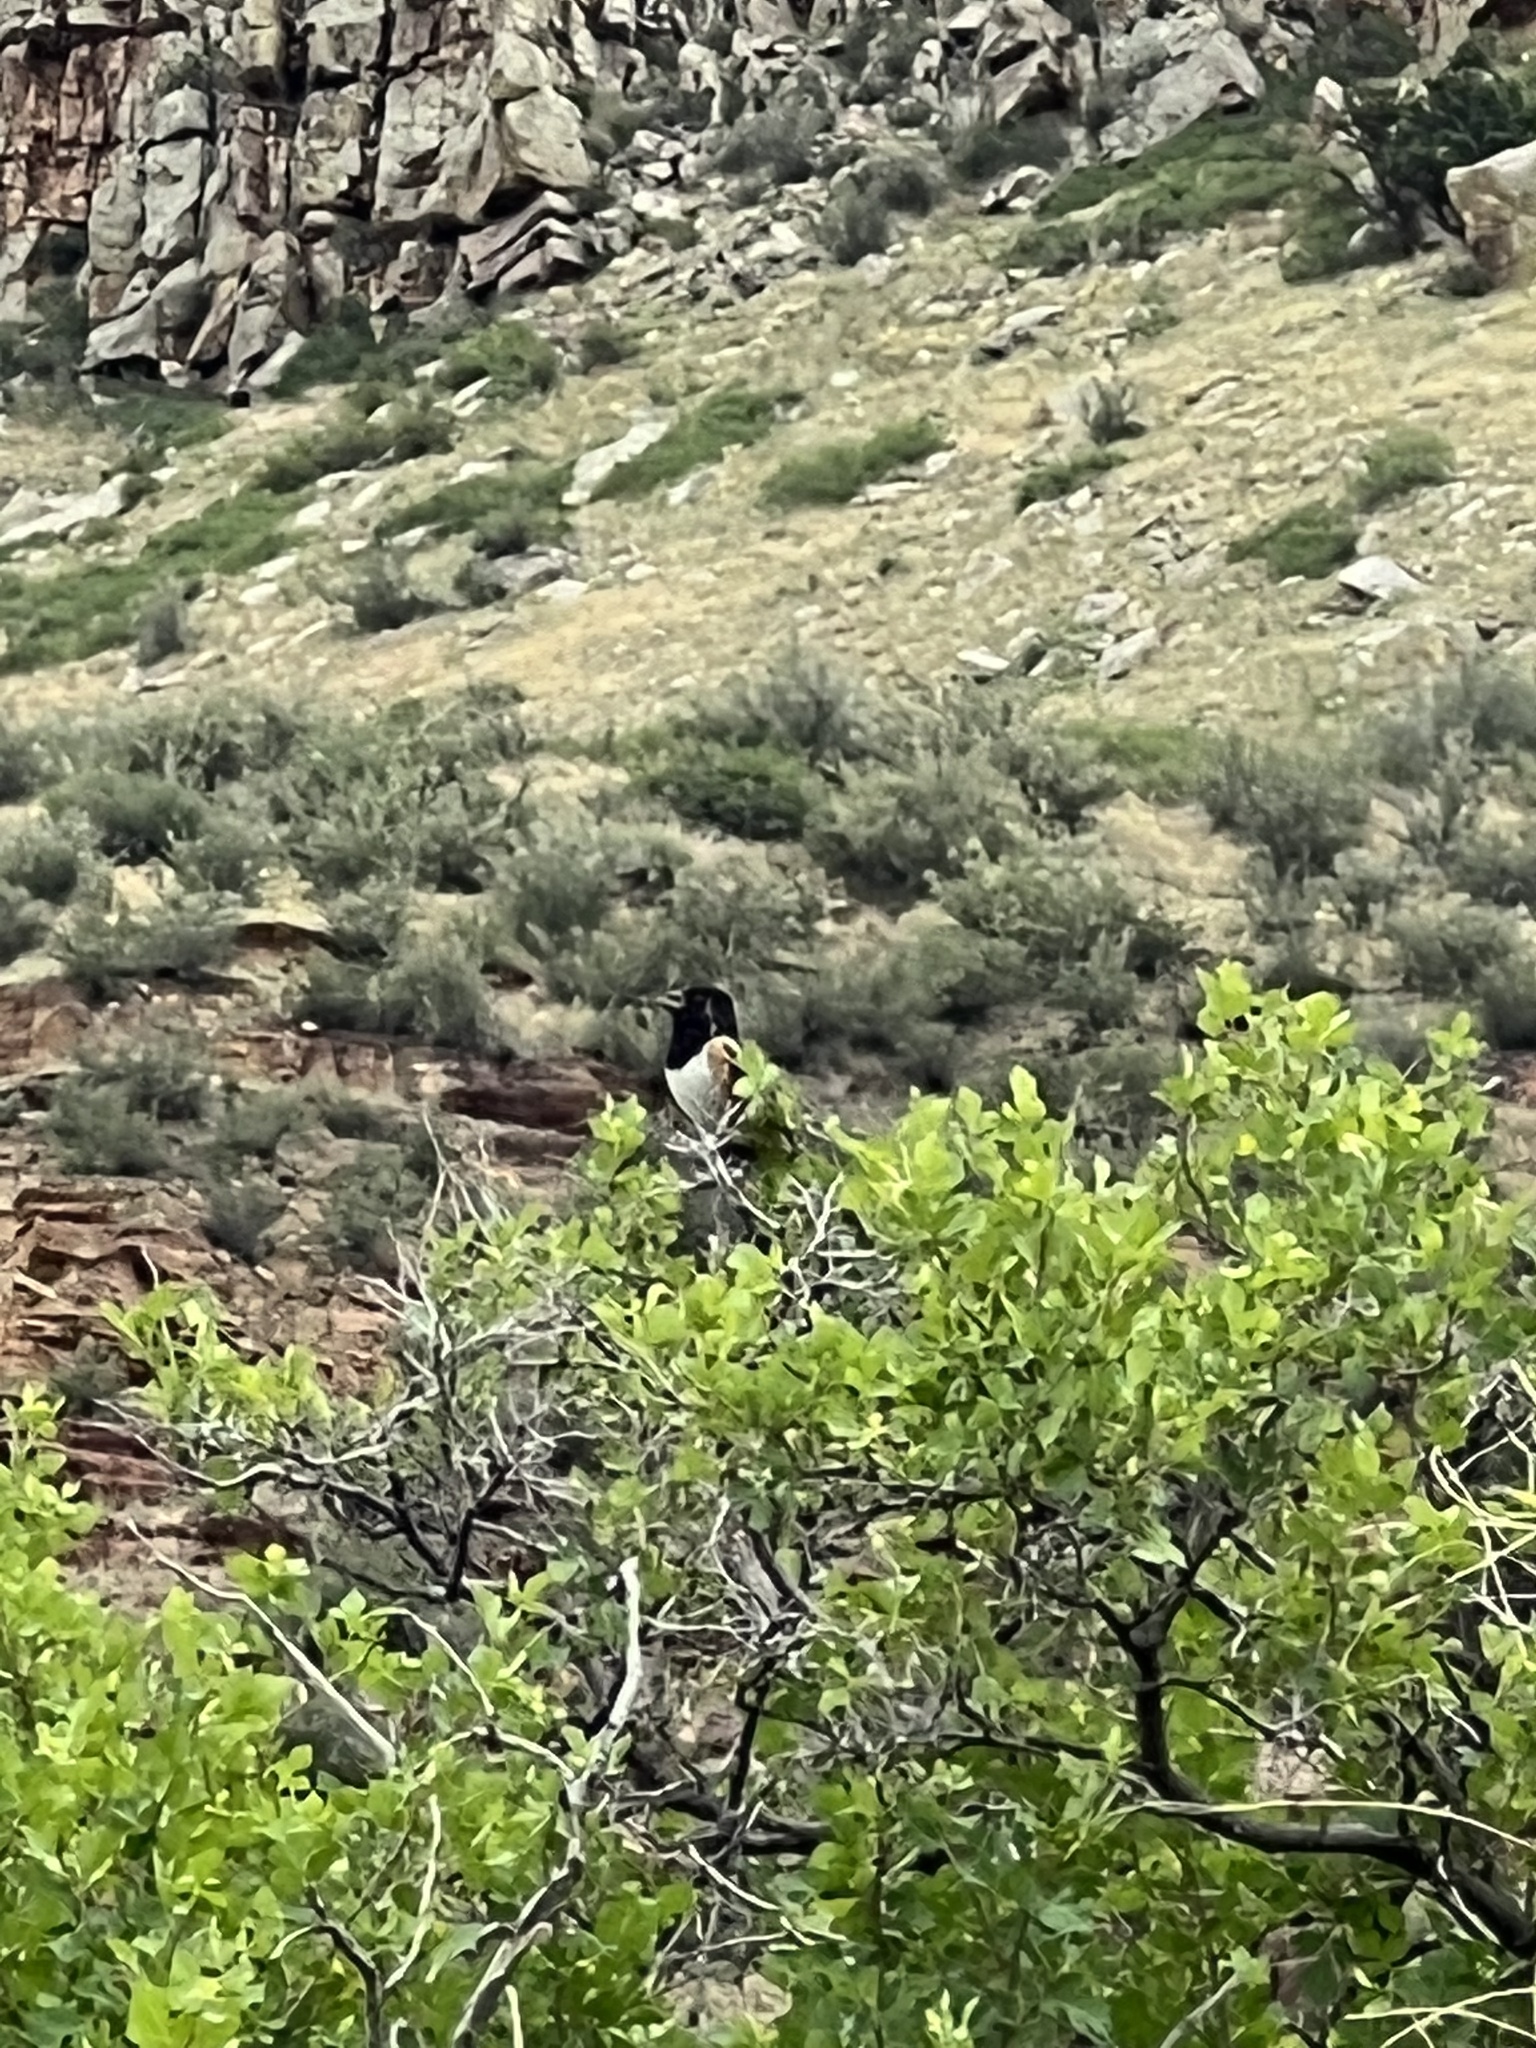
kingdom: Animalia
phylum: Chordata
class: Aves
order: Passeriformes
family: Passerellidae
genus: Pipilo
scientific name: Pipilo maculatus
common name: Spotted towhee
